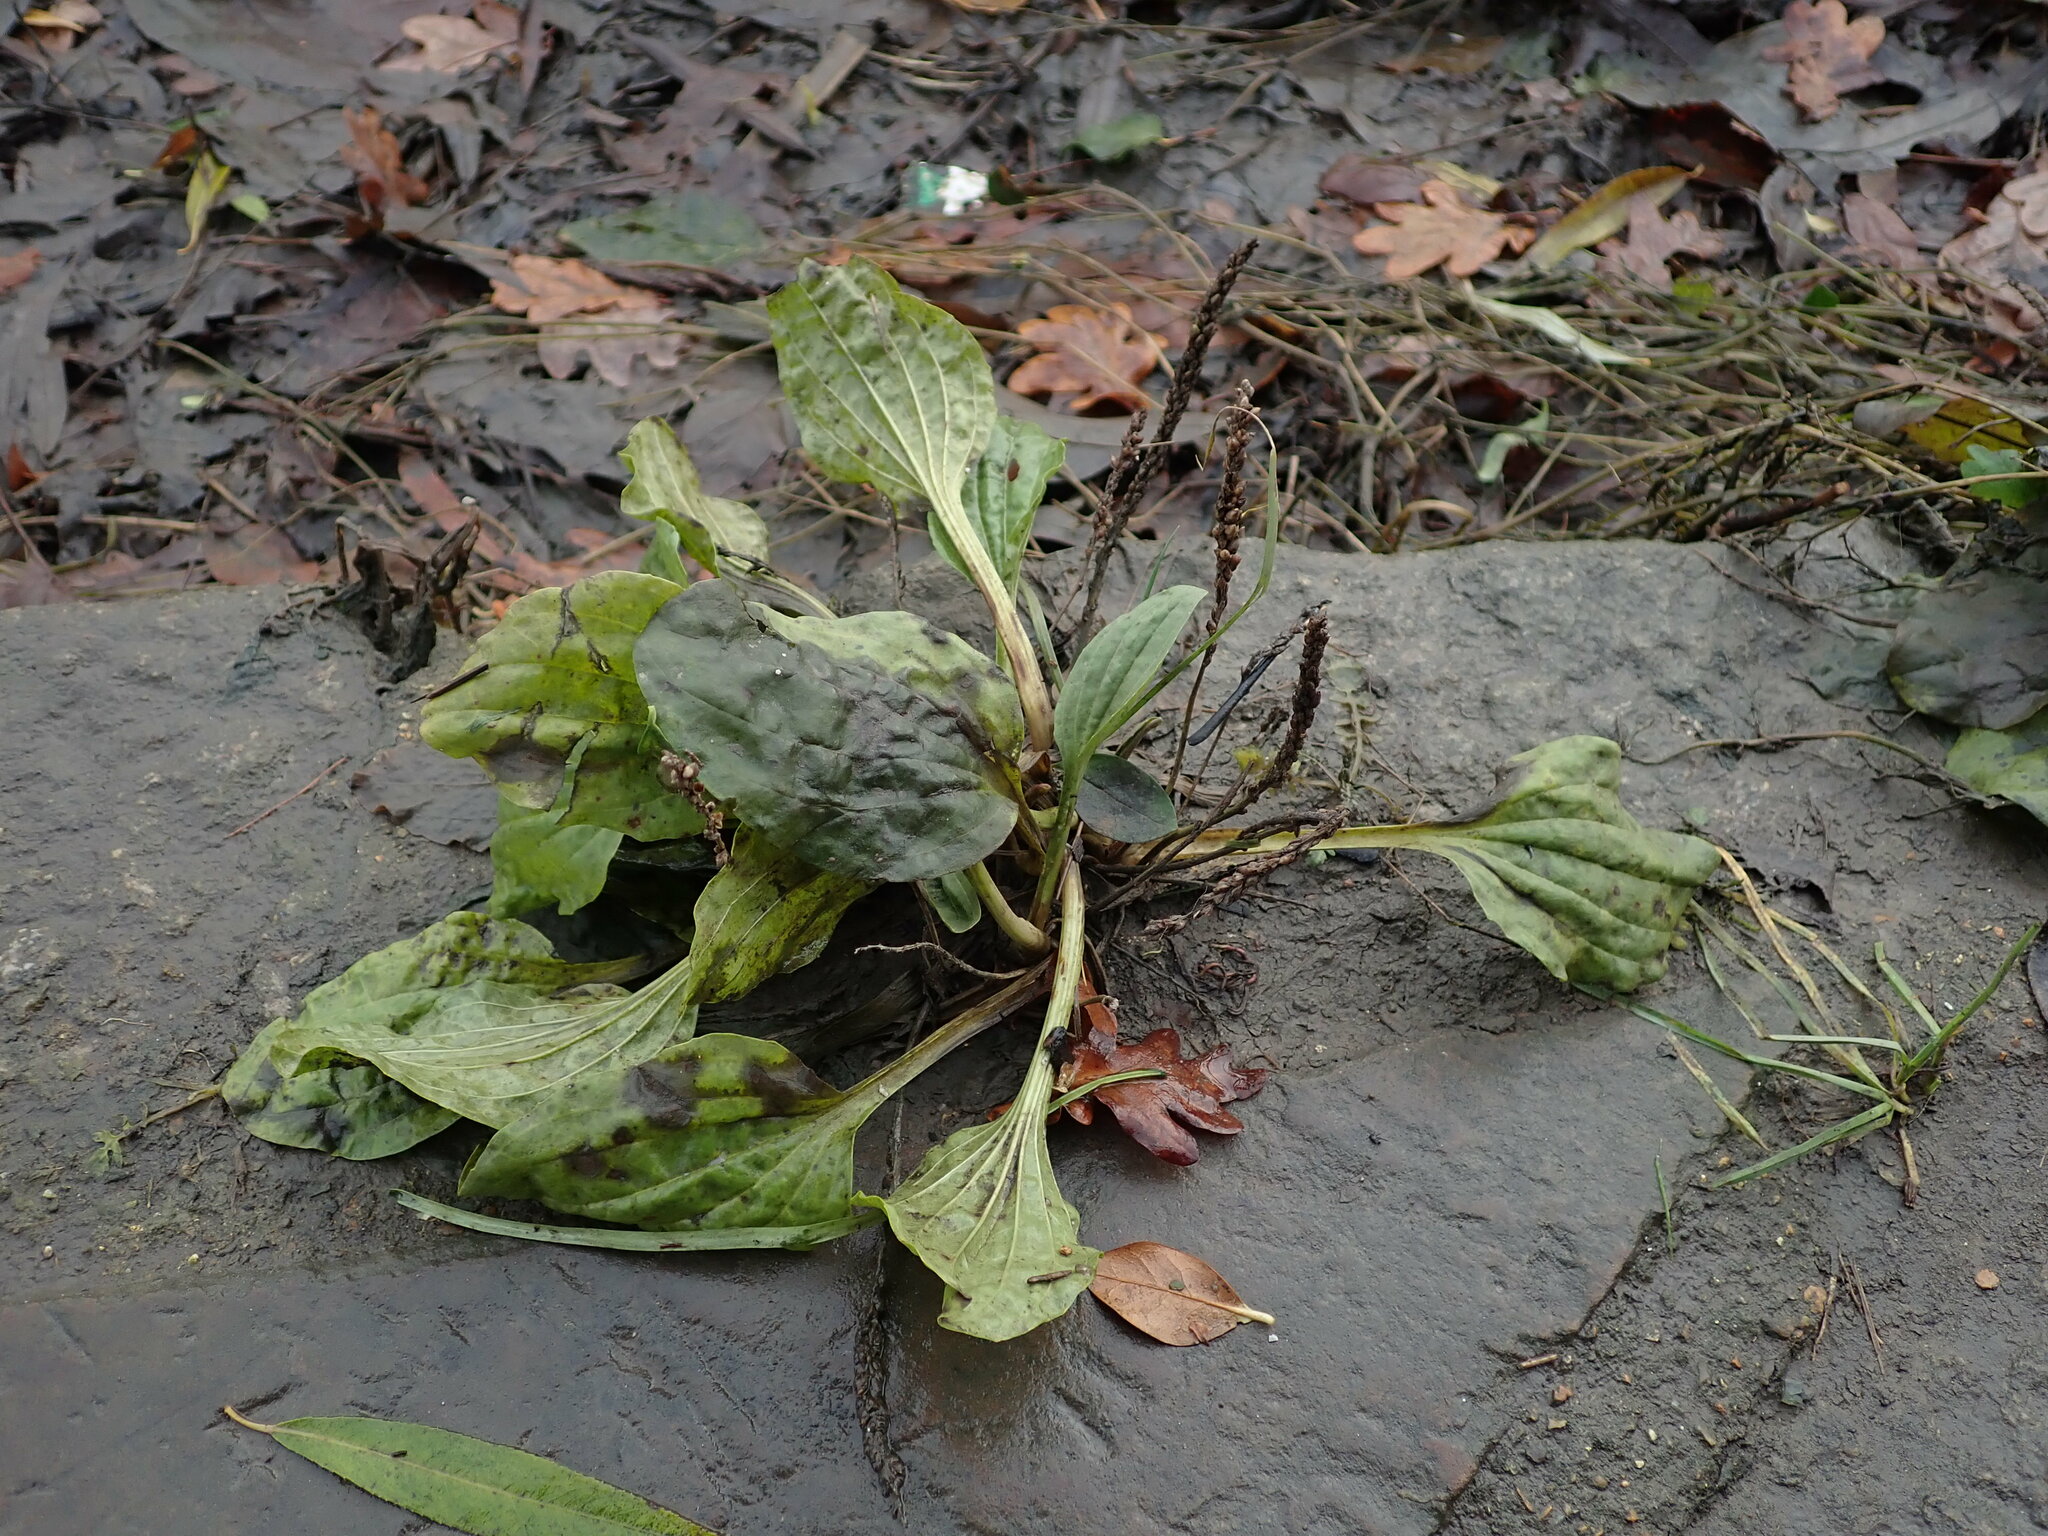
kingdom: Plantae
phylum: Tracheophyta
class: Magnoliopsida
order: Lamiales
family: Plantaginaceae
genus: Plantago
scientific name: Plantago major
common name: Common plantain
